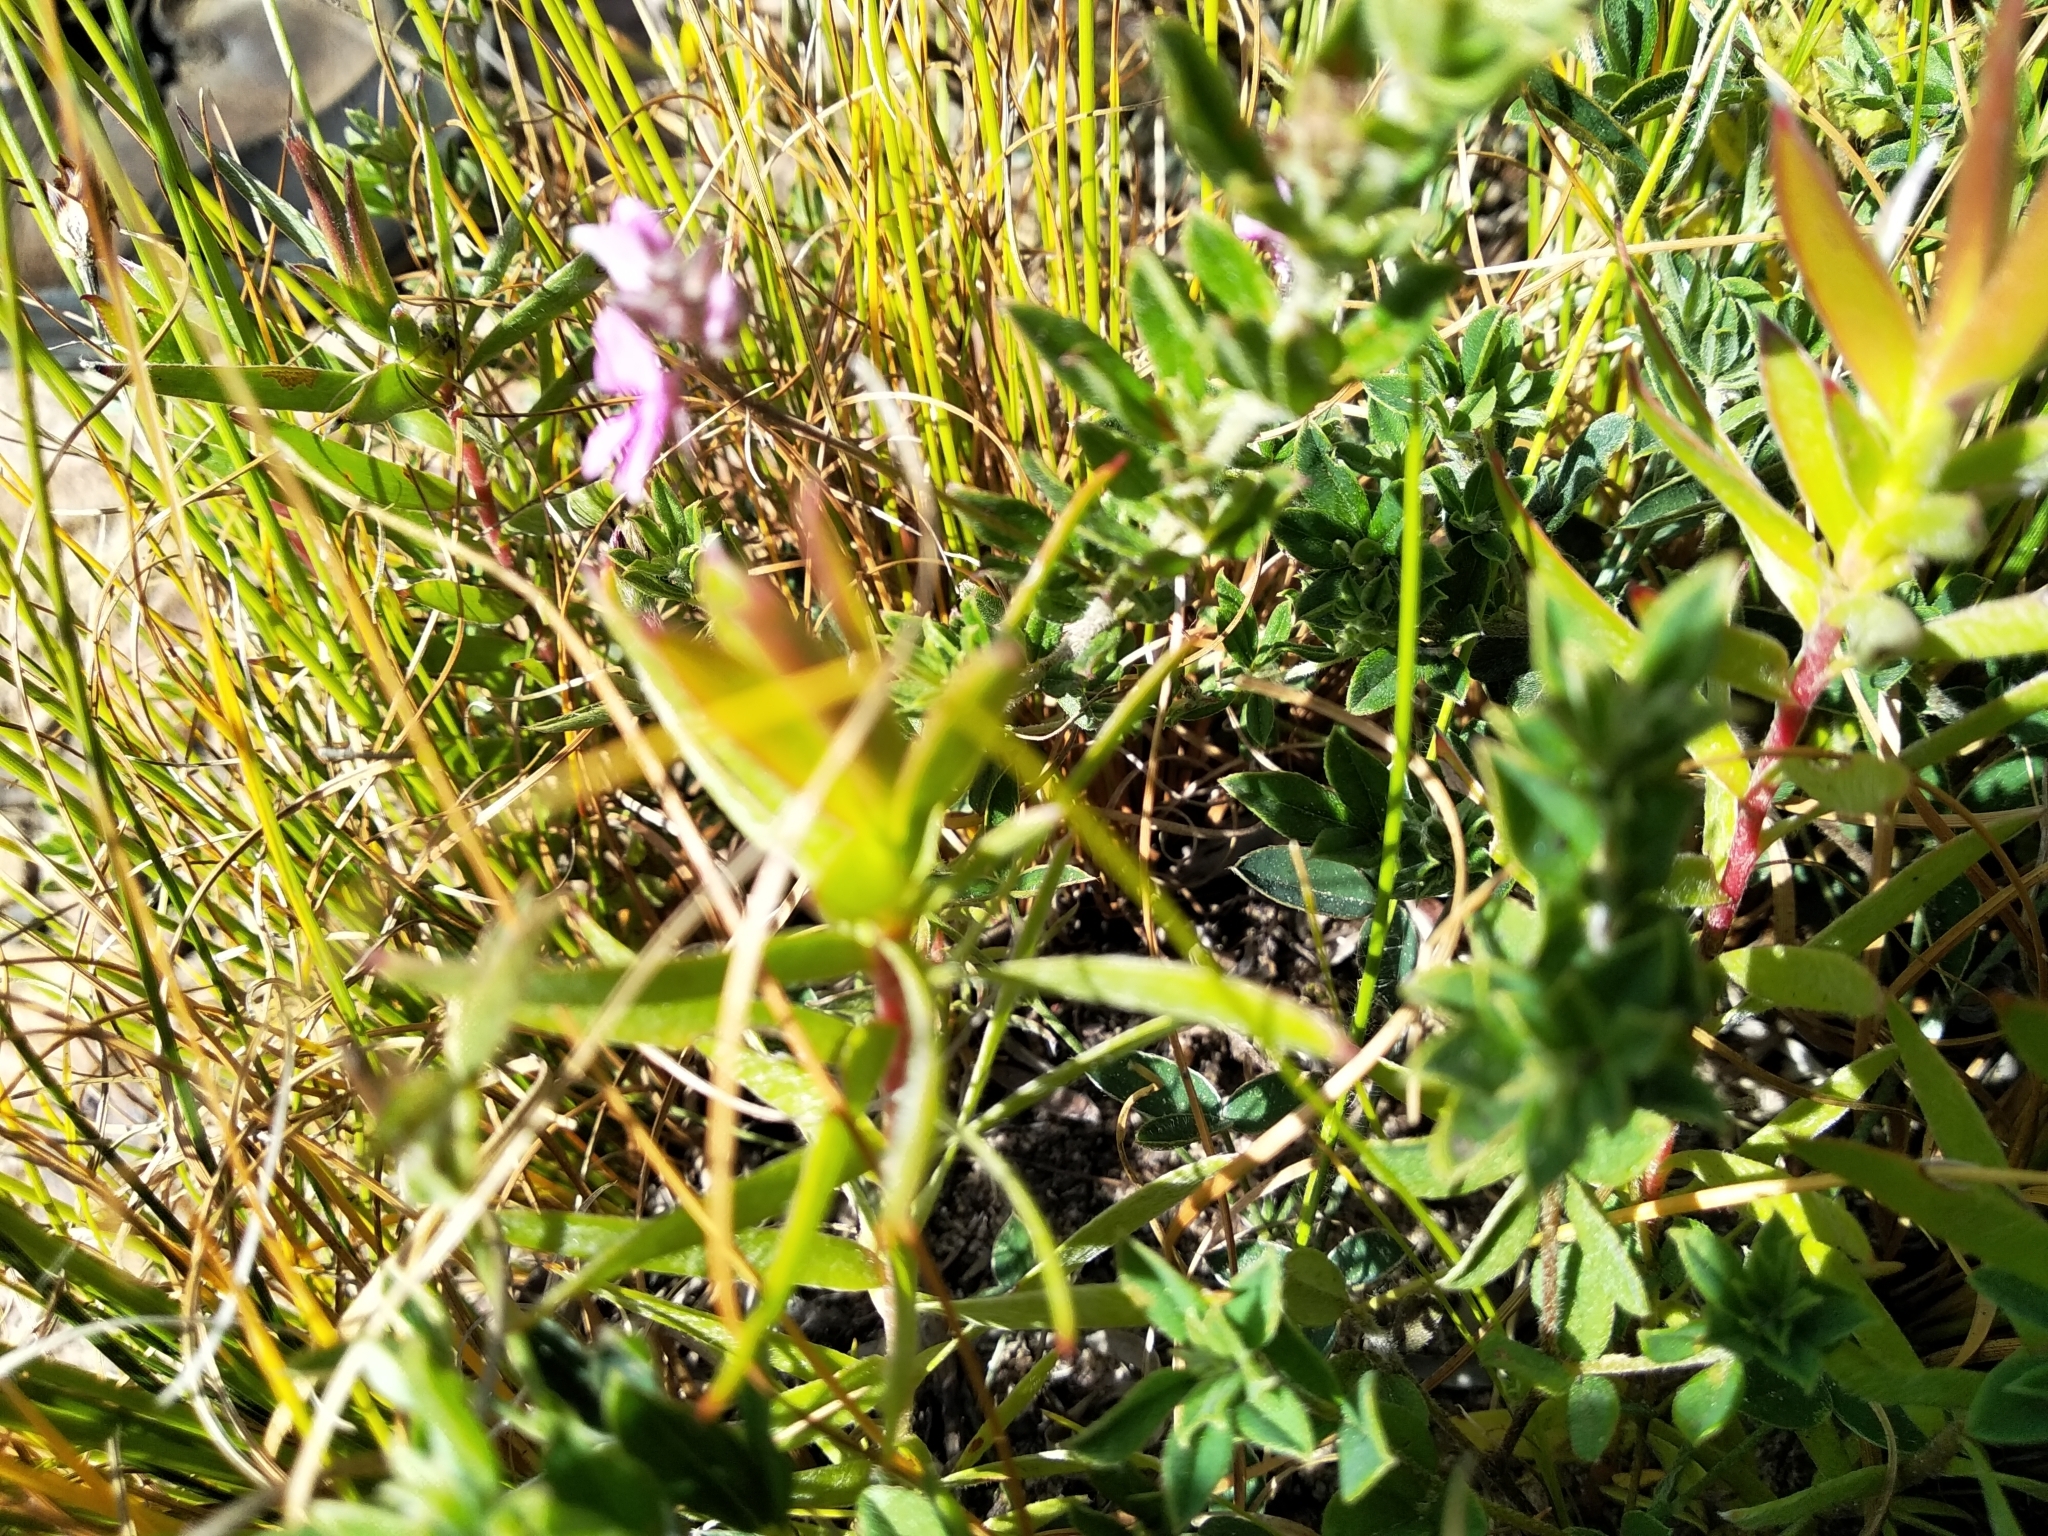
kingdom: Plantae
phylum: Tracheophyta
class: Magnoliopsida
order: Fabales
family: Fabaceae
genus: Indigofera
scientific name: Indigofera filiformis
